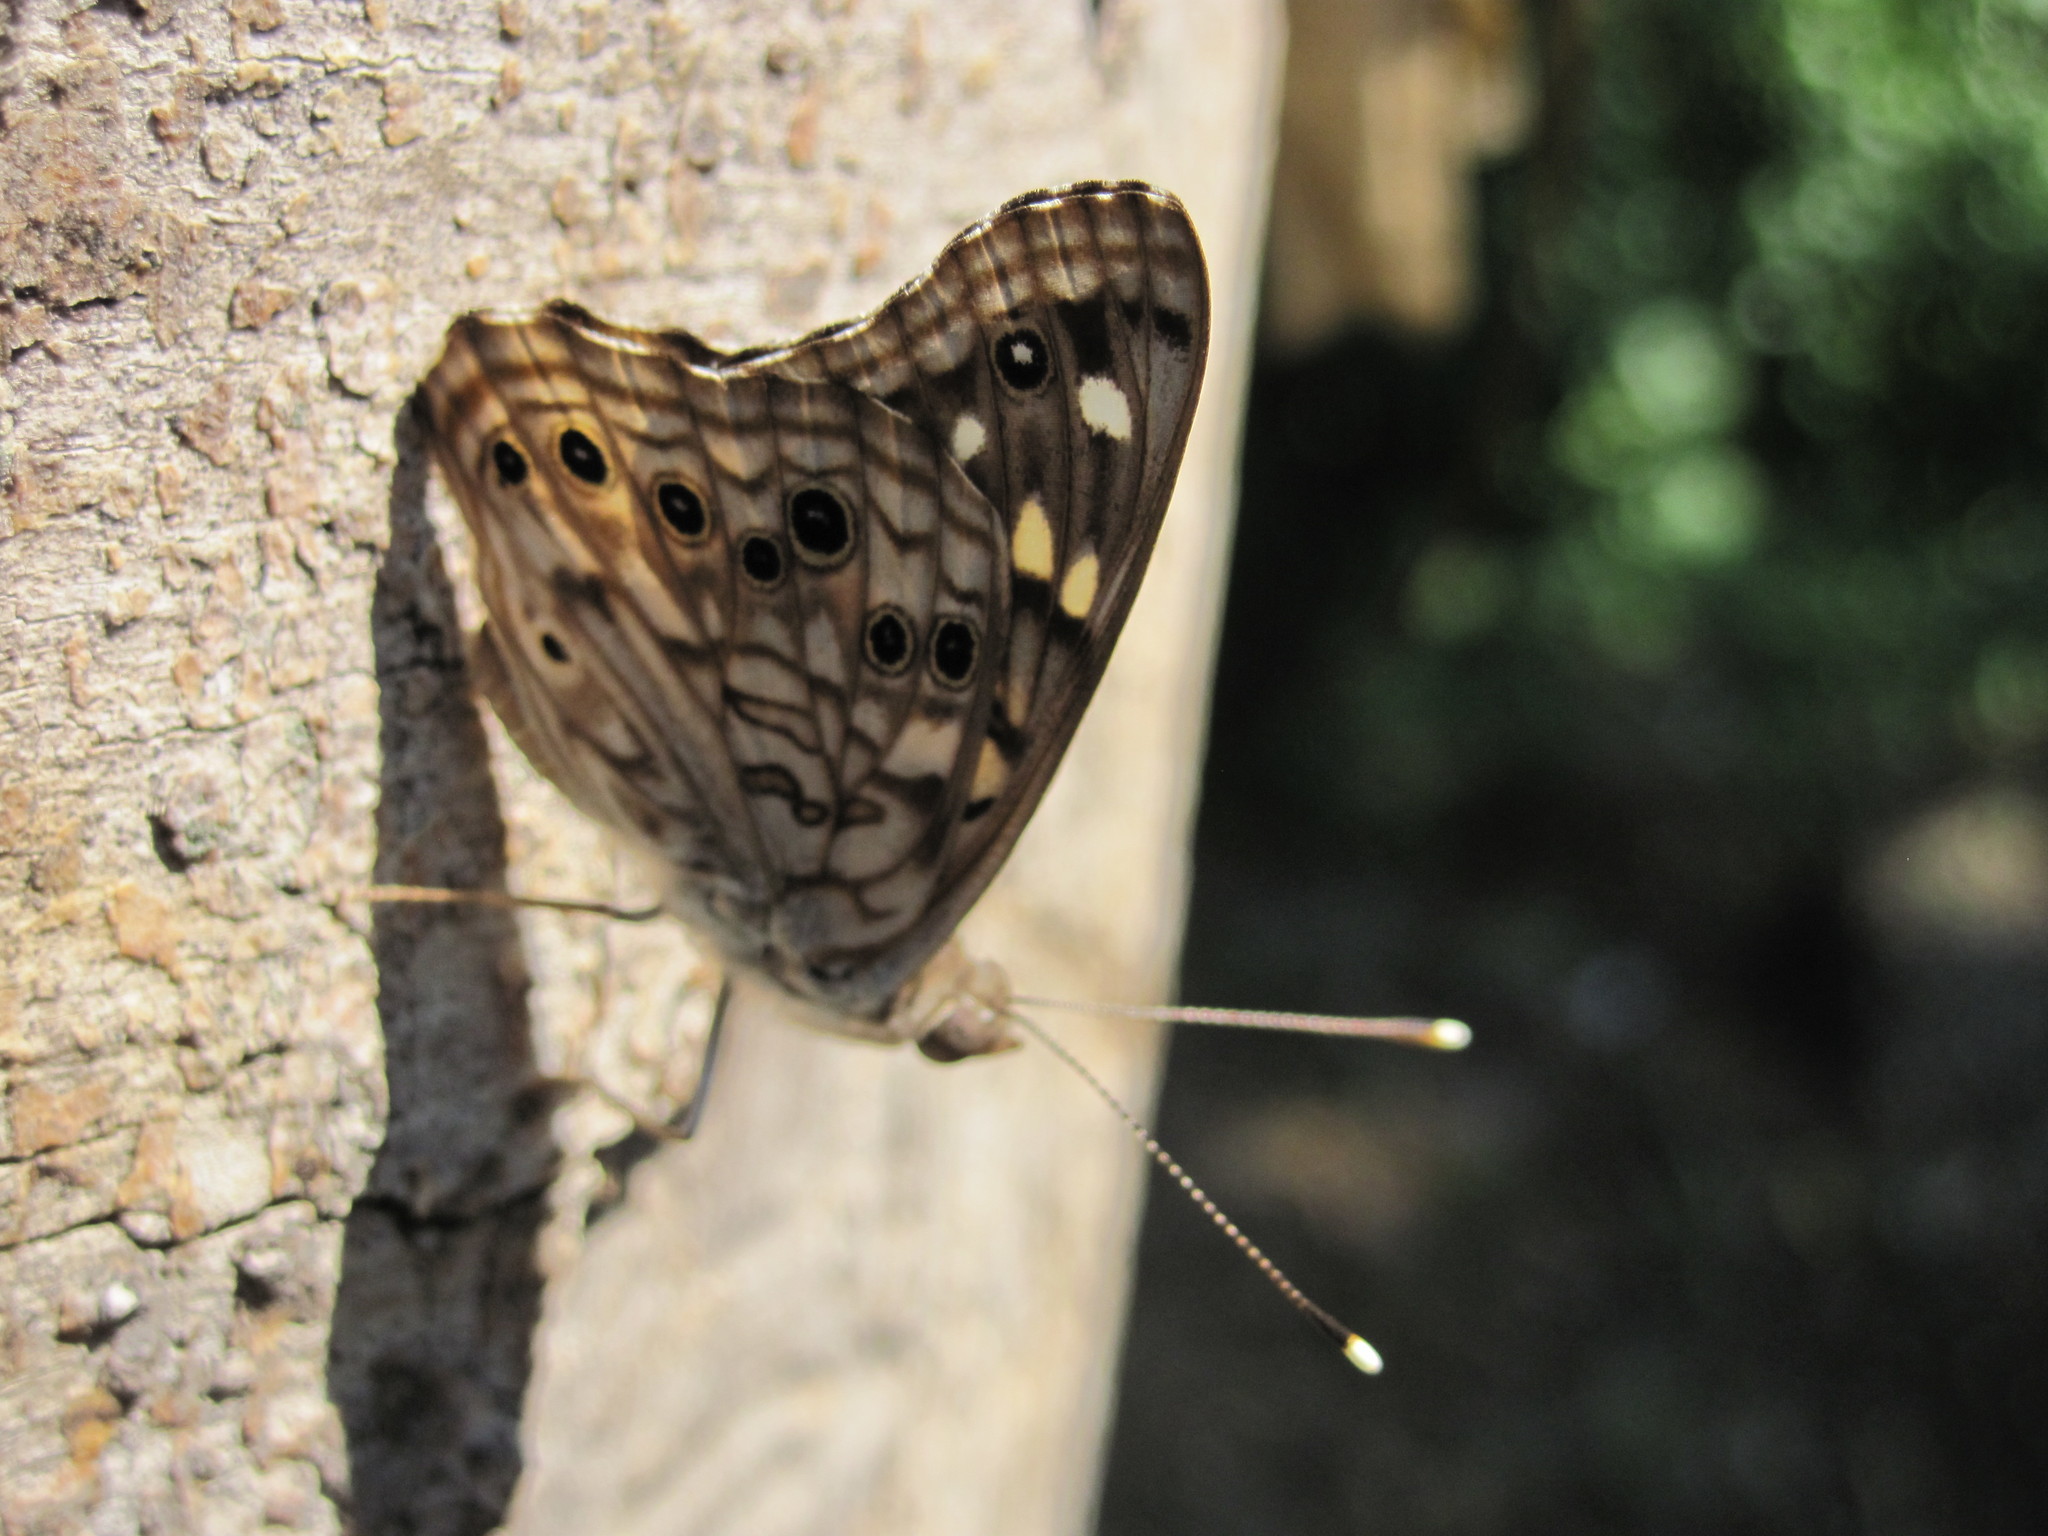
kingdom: Animalia
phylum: Arthropoda
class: Insecta
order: Lepidoptera
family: Nymphalidae
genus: Asterocampa
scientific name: Asterocampa celtis
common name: Hackberry emperor
